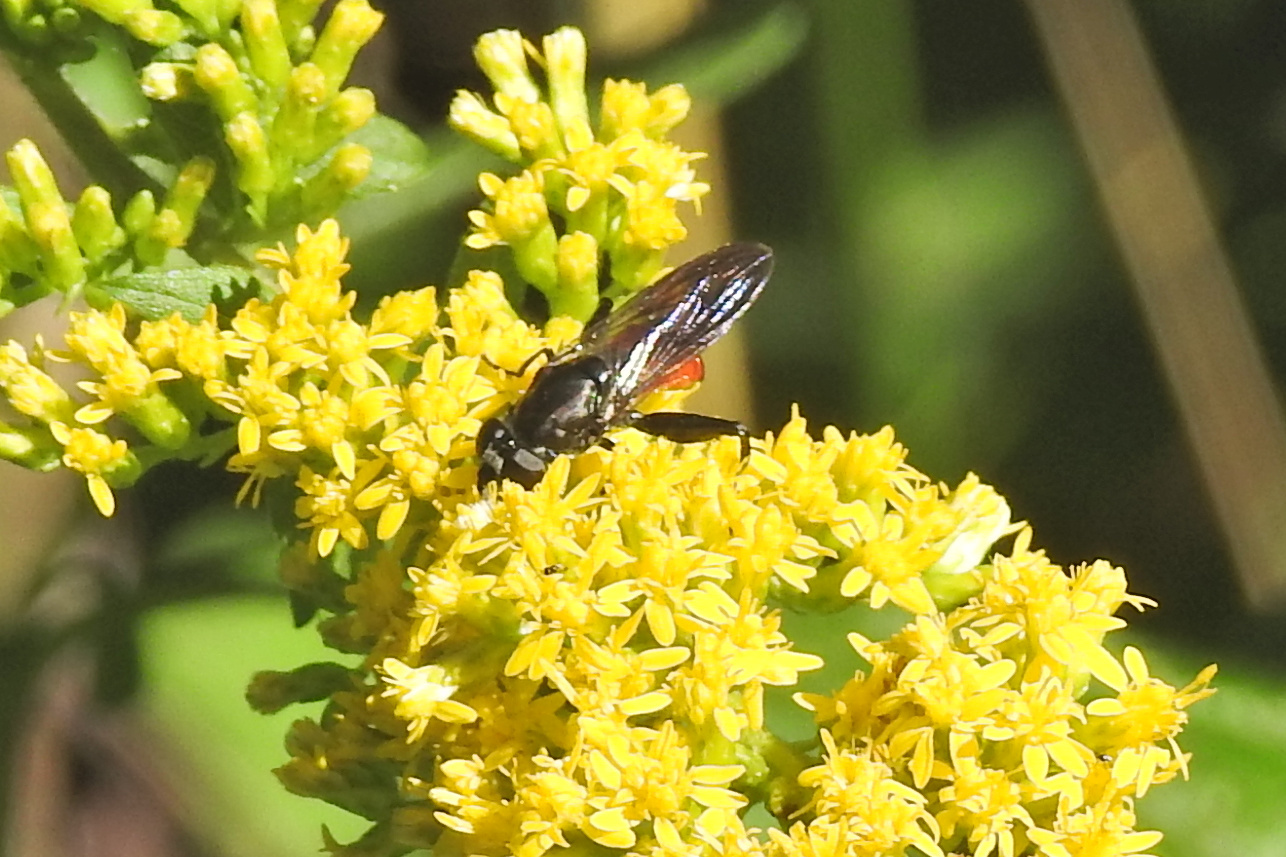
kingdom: Animalia
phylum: Arthropoda
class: Insecta
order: Diptera
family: Syrphidae
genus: Chalcosyrphus
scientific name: Chalcosyrphus piger
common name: Short-haired leafwalker
